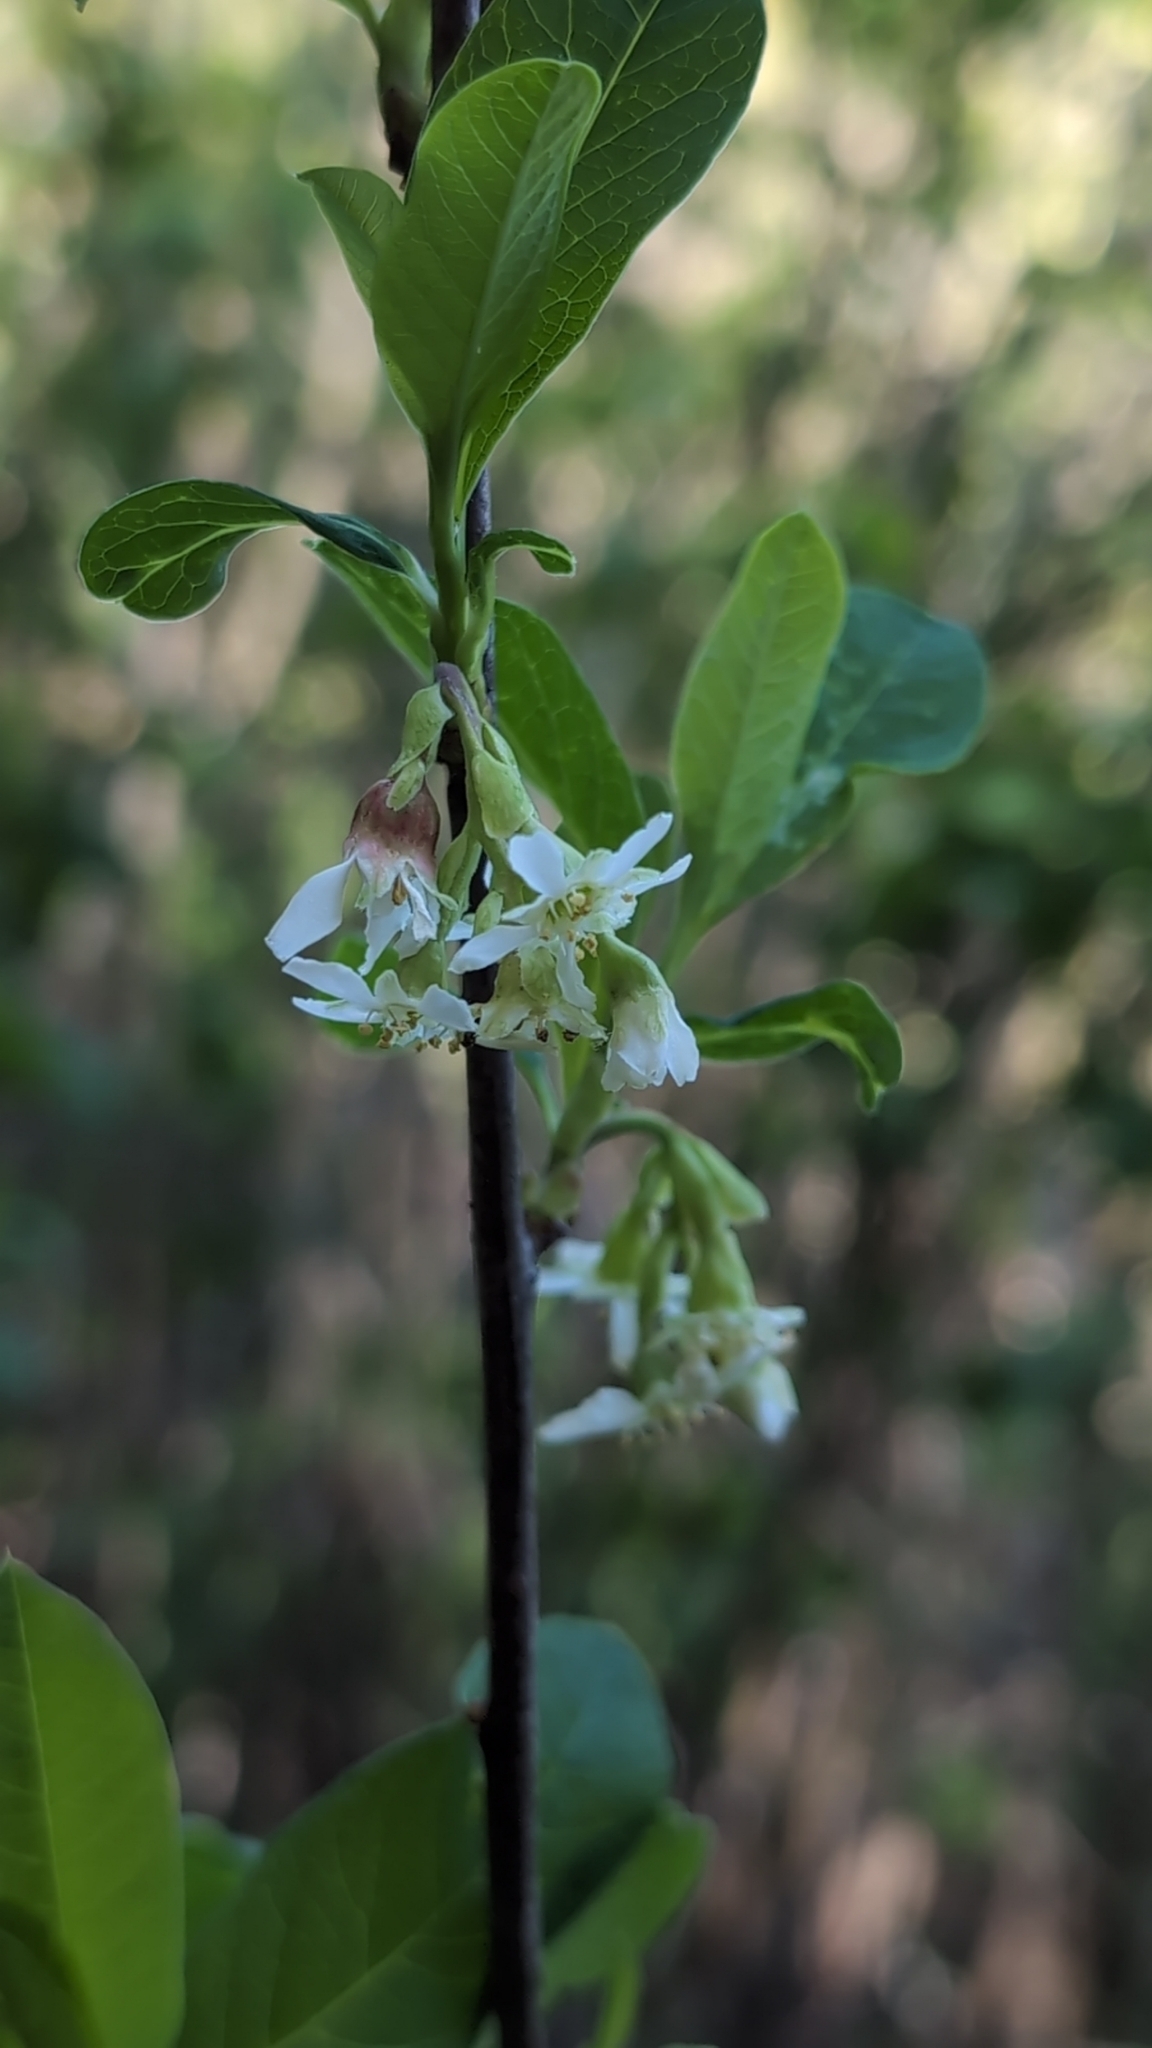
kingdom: Plantae
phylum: Tracheophyta
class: Magnoliopsida
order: Rosales
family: Rosaceae
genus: Oemleria
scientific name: Oemleria cerasiformis
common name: Osoberry
